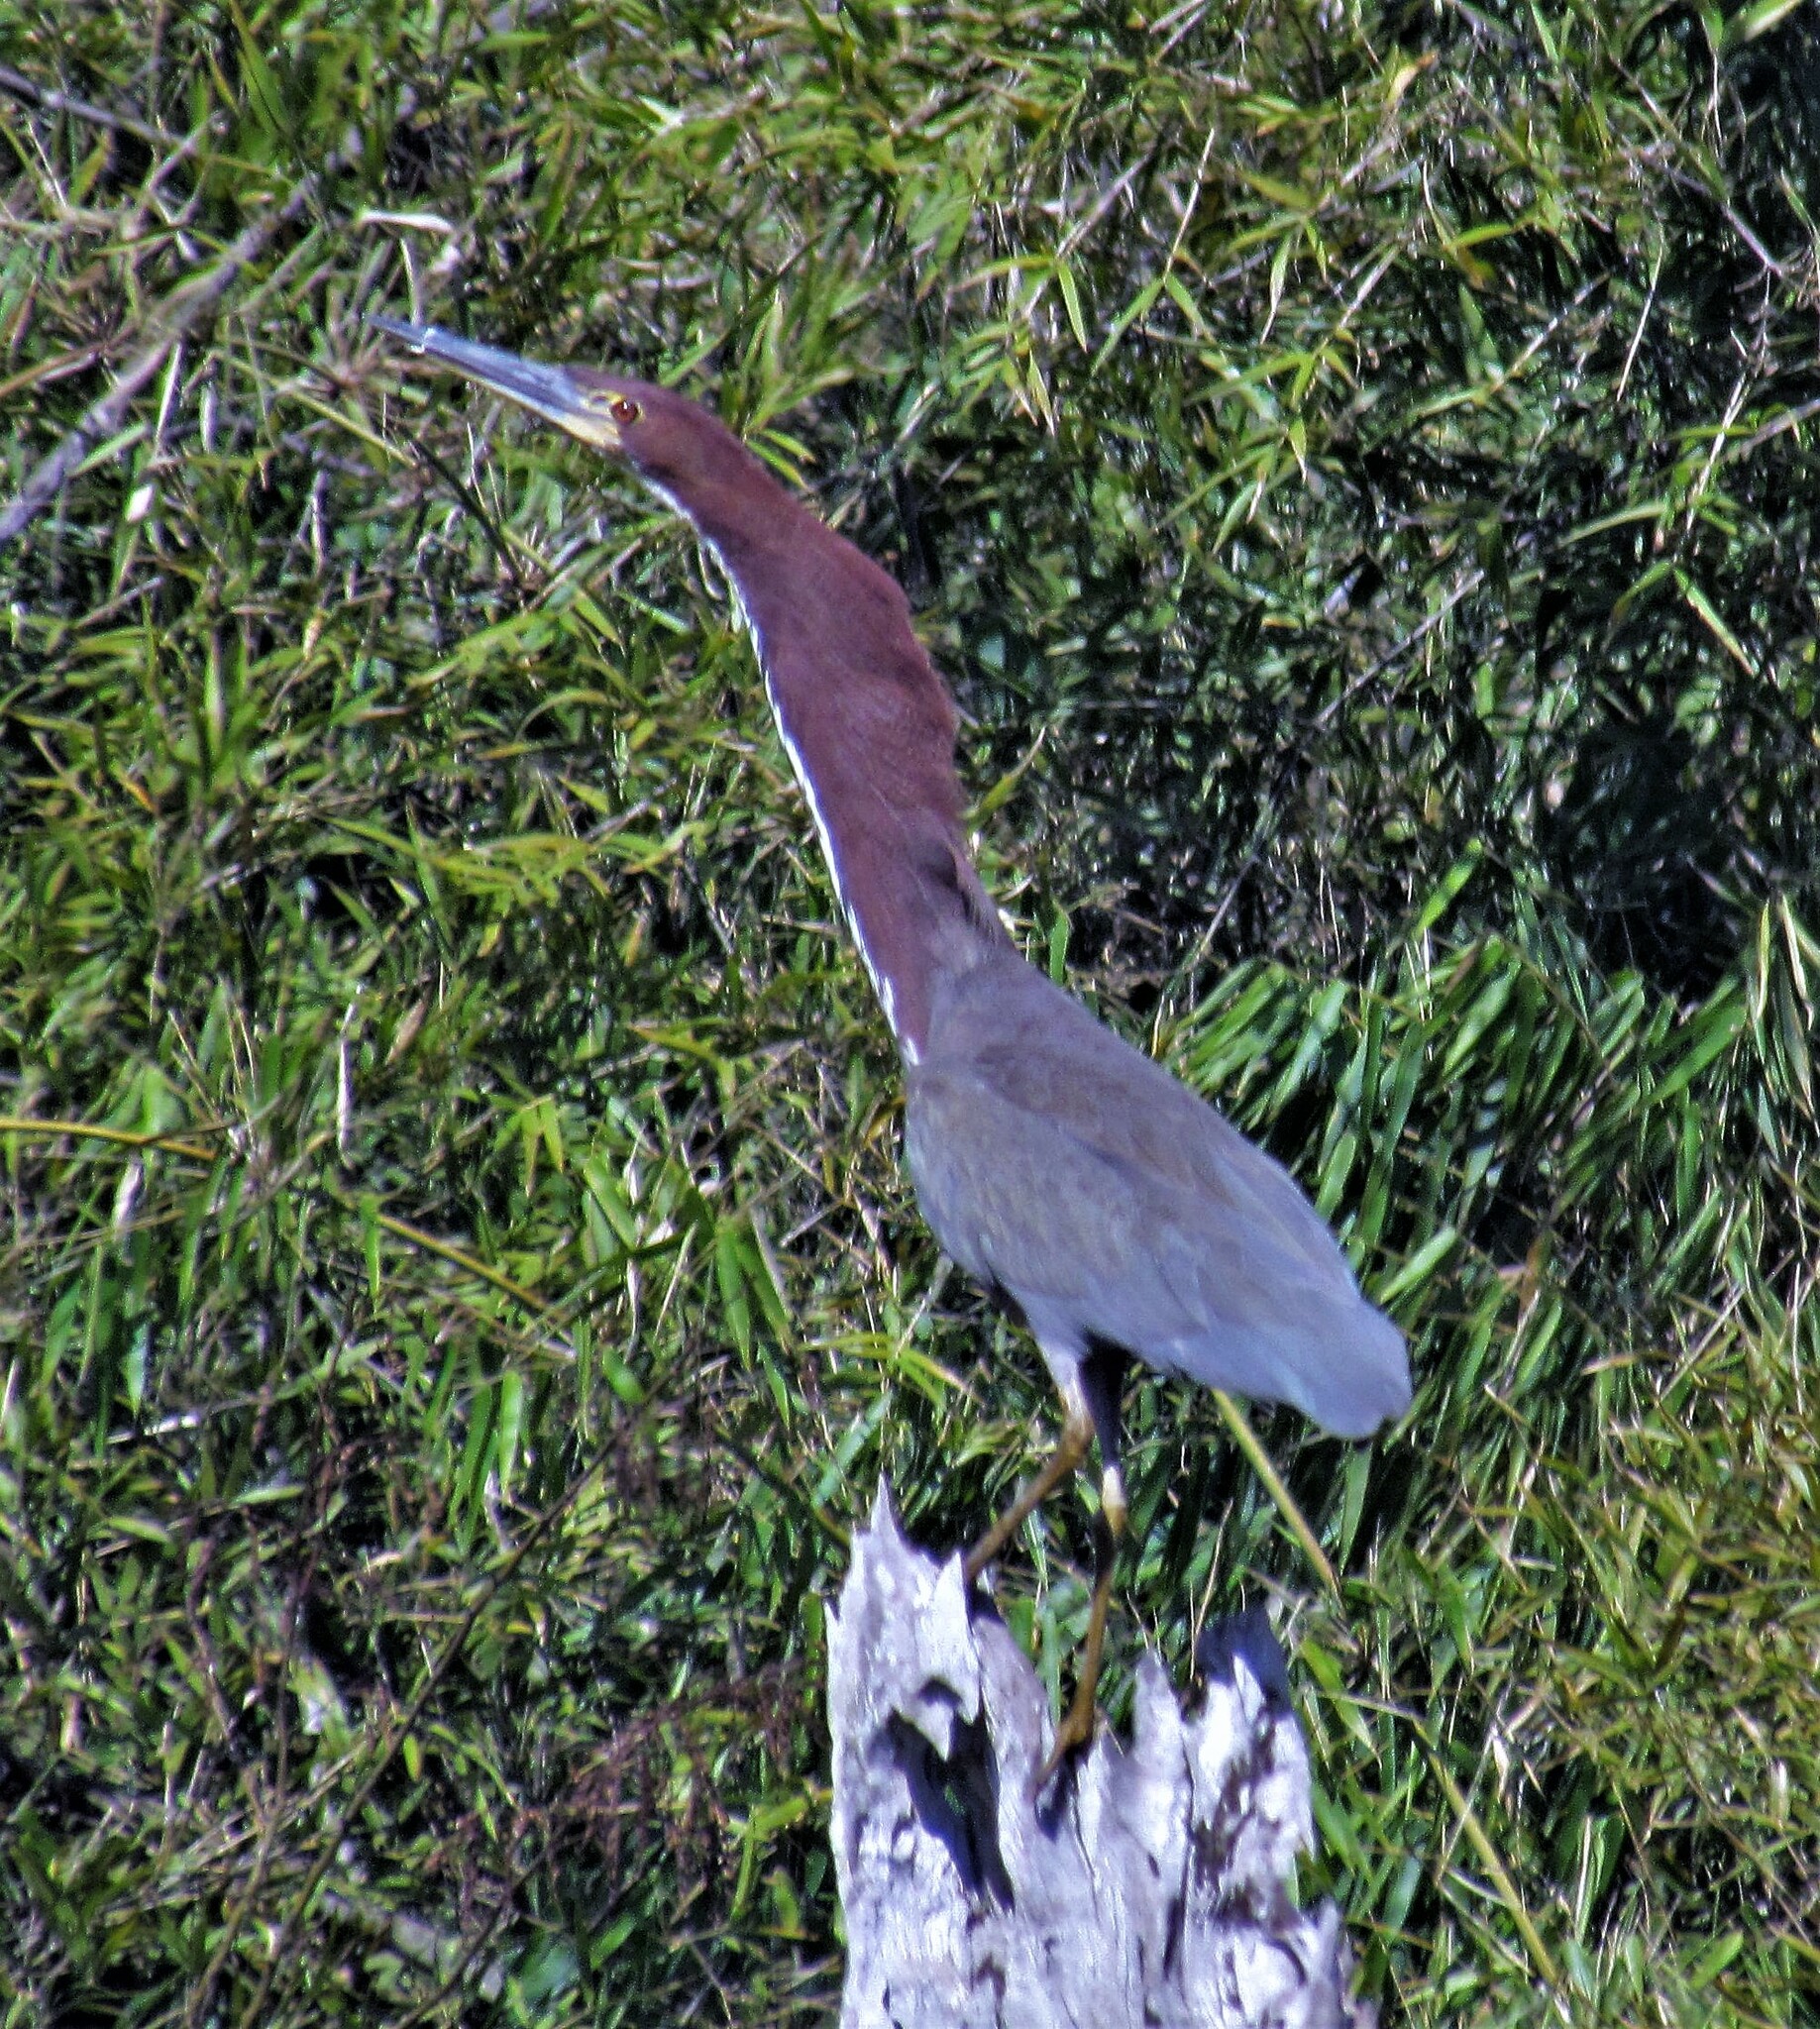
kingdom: Animalia
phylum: Chordata
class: Aves
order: Pelecaniformes
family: Ardeidae
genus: Tigrisoma
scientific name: Tigrisoma lineatum
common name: Rufescent tiger-heron
